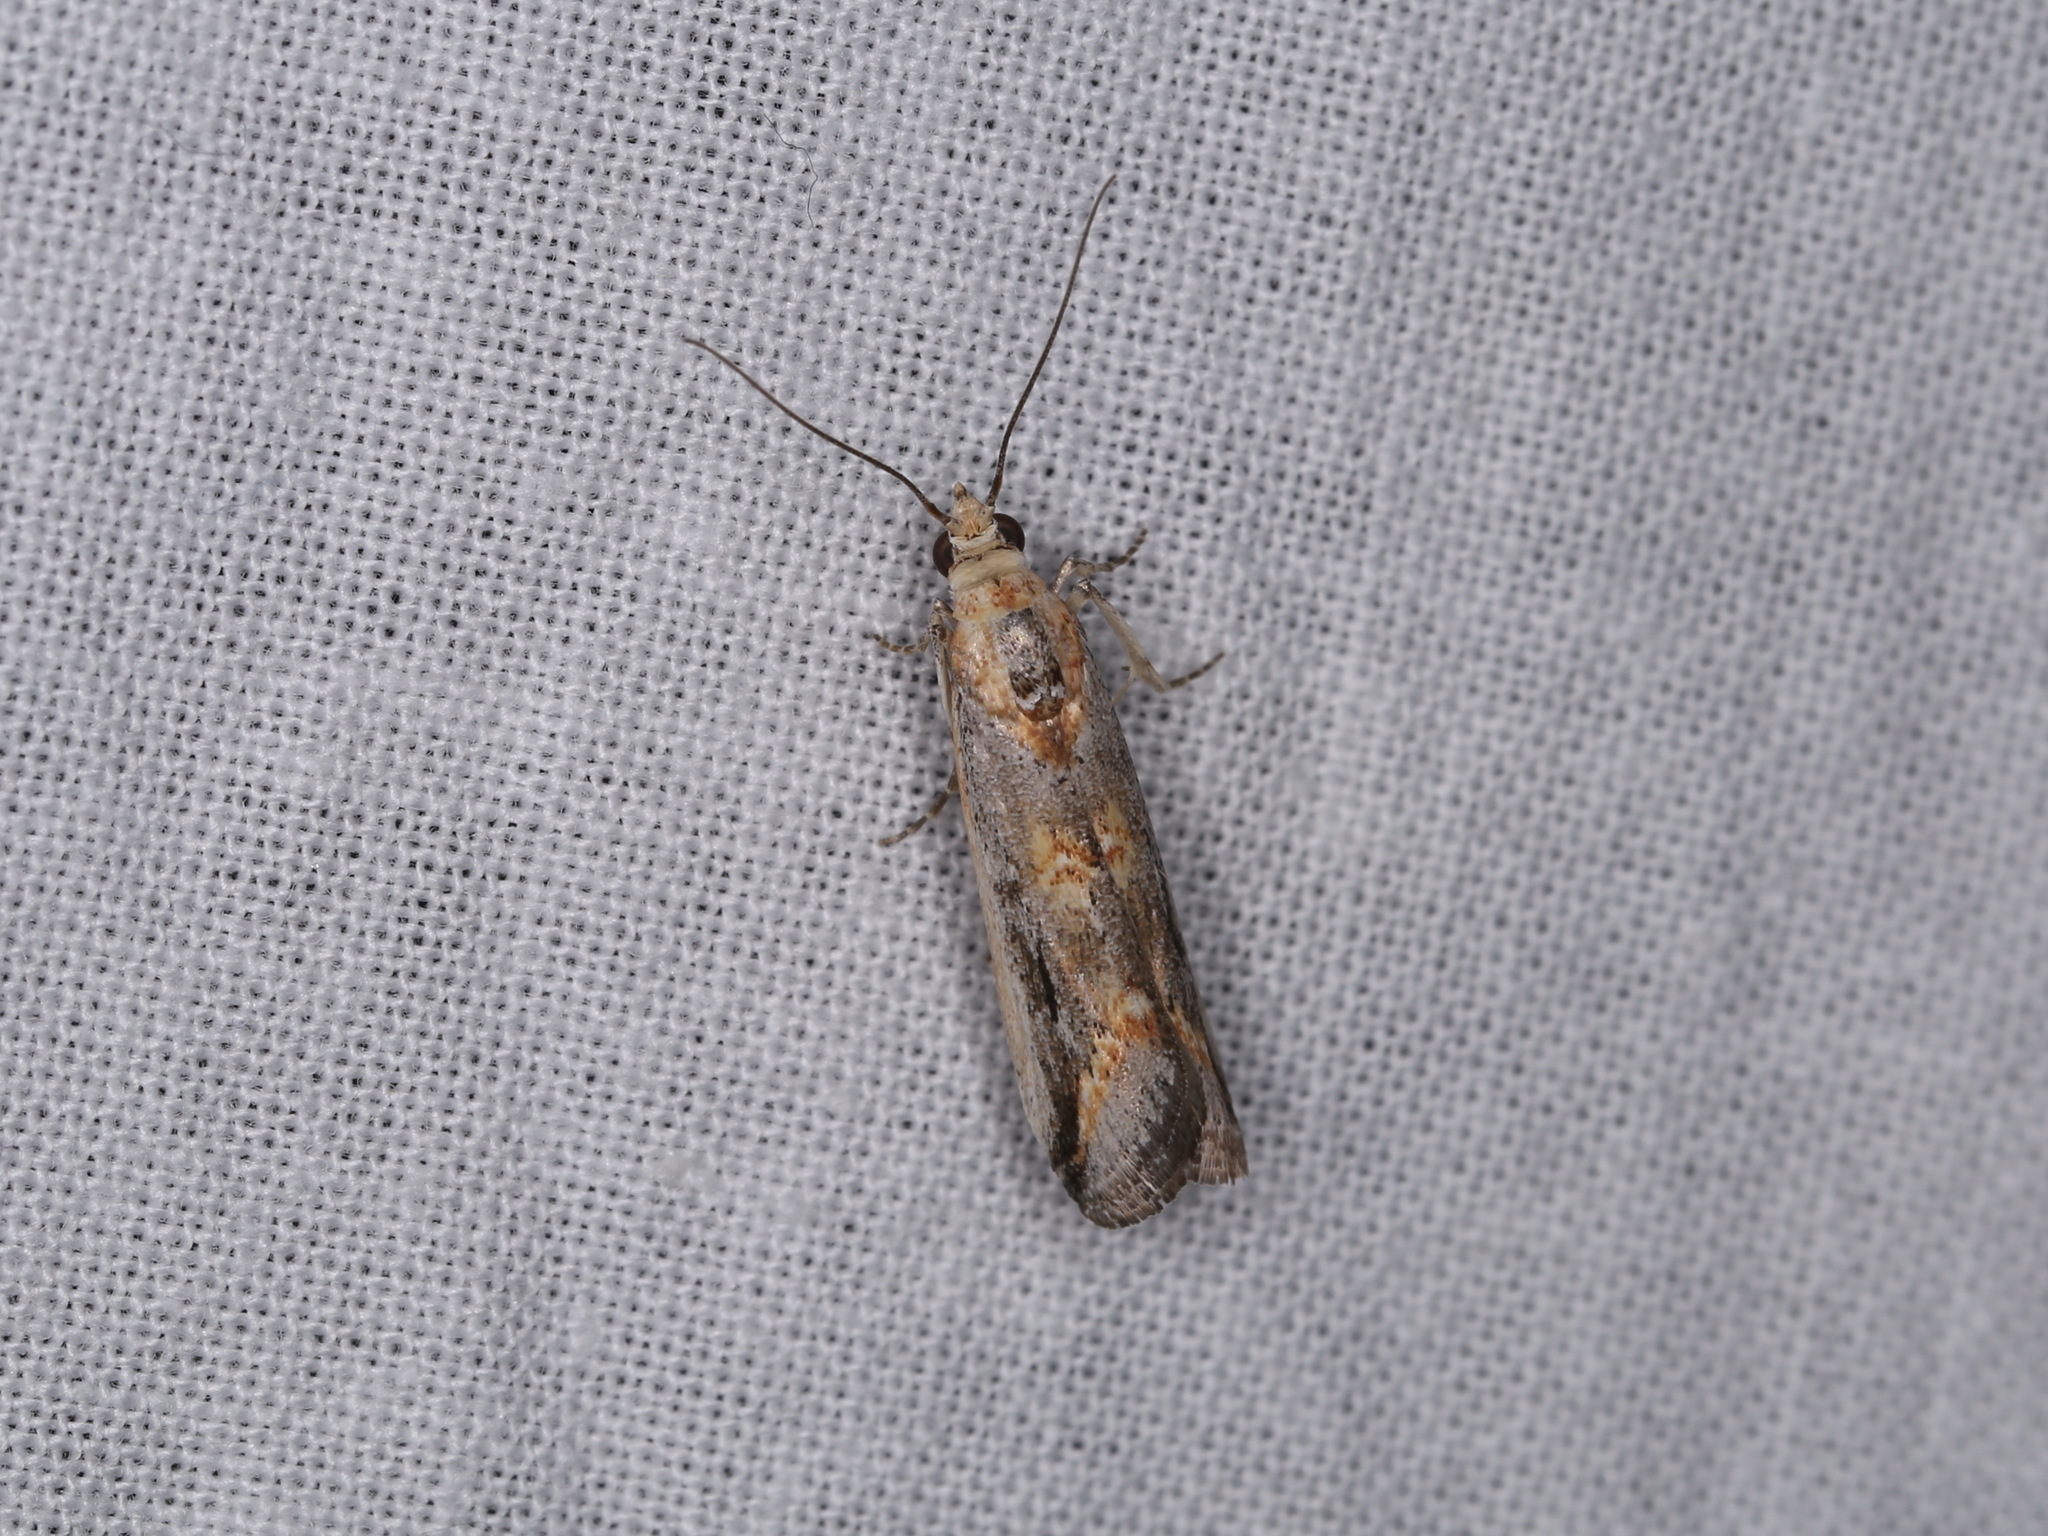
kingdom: Animalia
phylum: Arthropoda
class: Insecta
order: Lepidoptera
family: Pyralidae
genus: Morosaphycita
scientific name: Morosaphycita poliochyta
